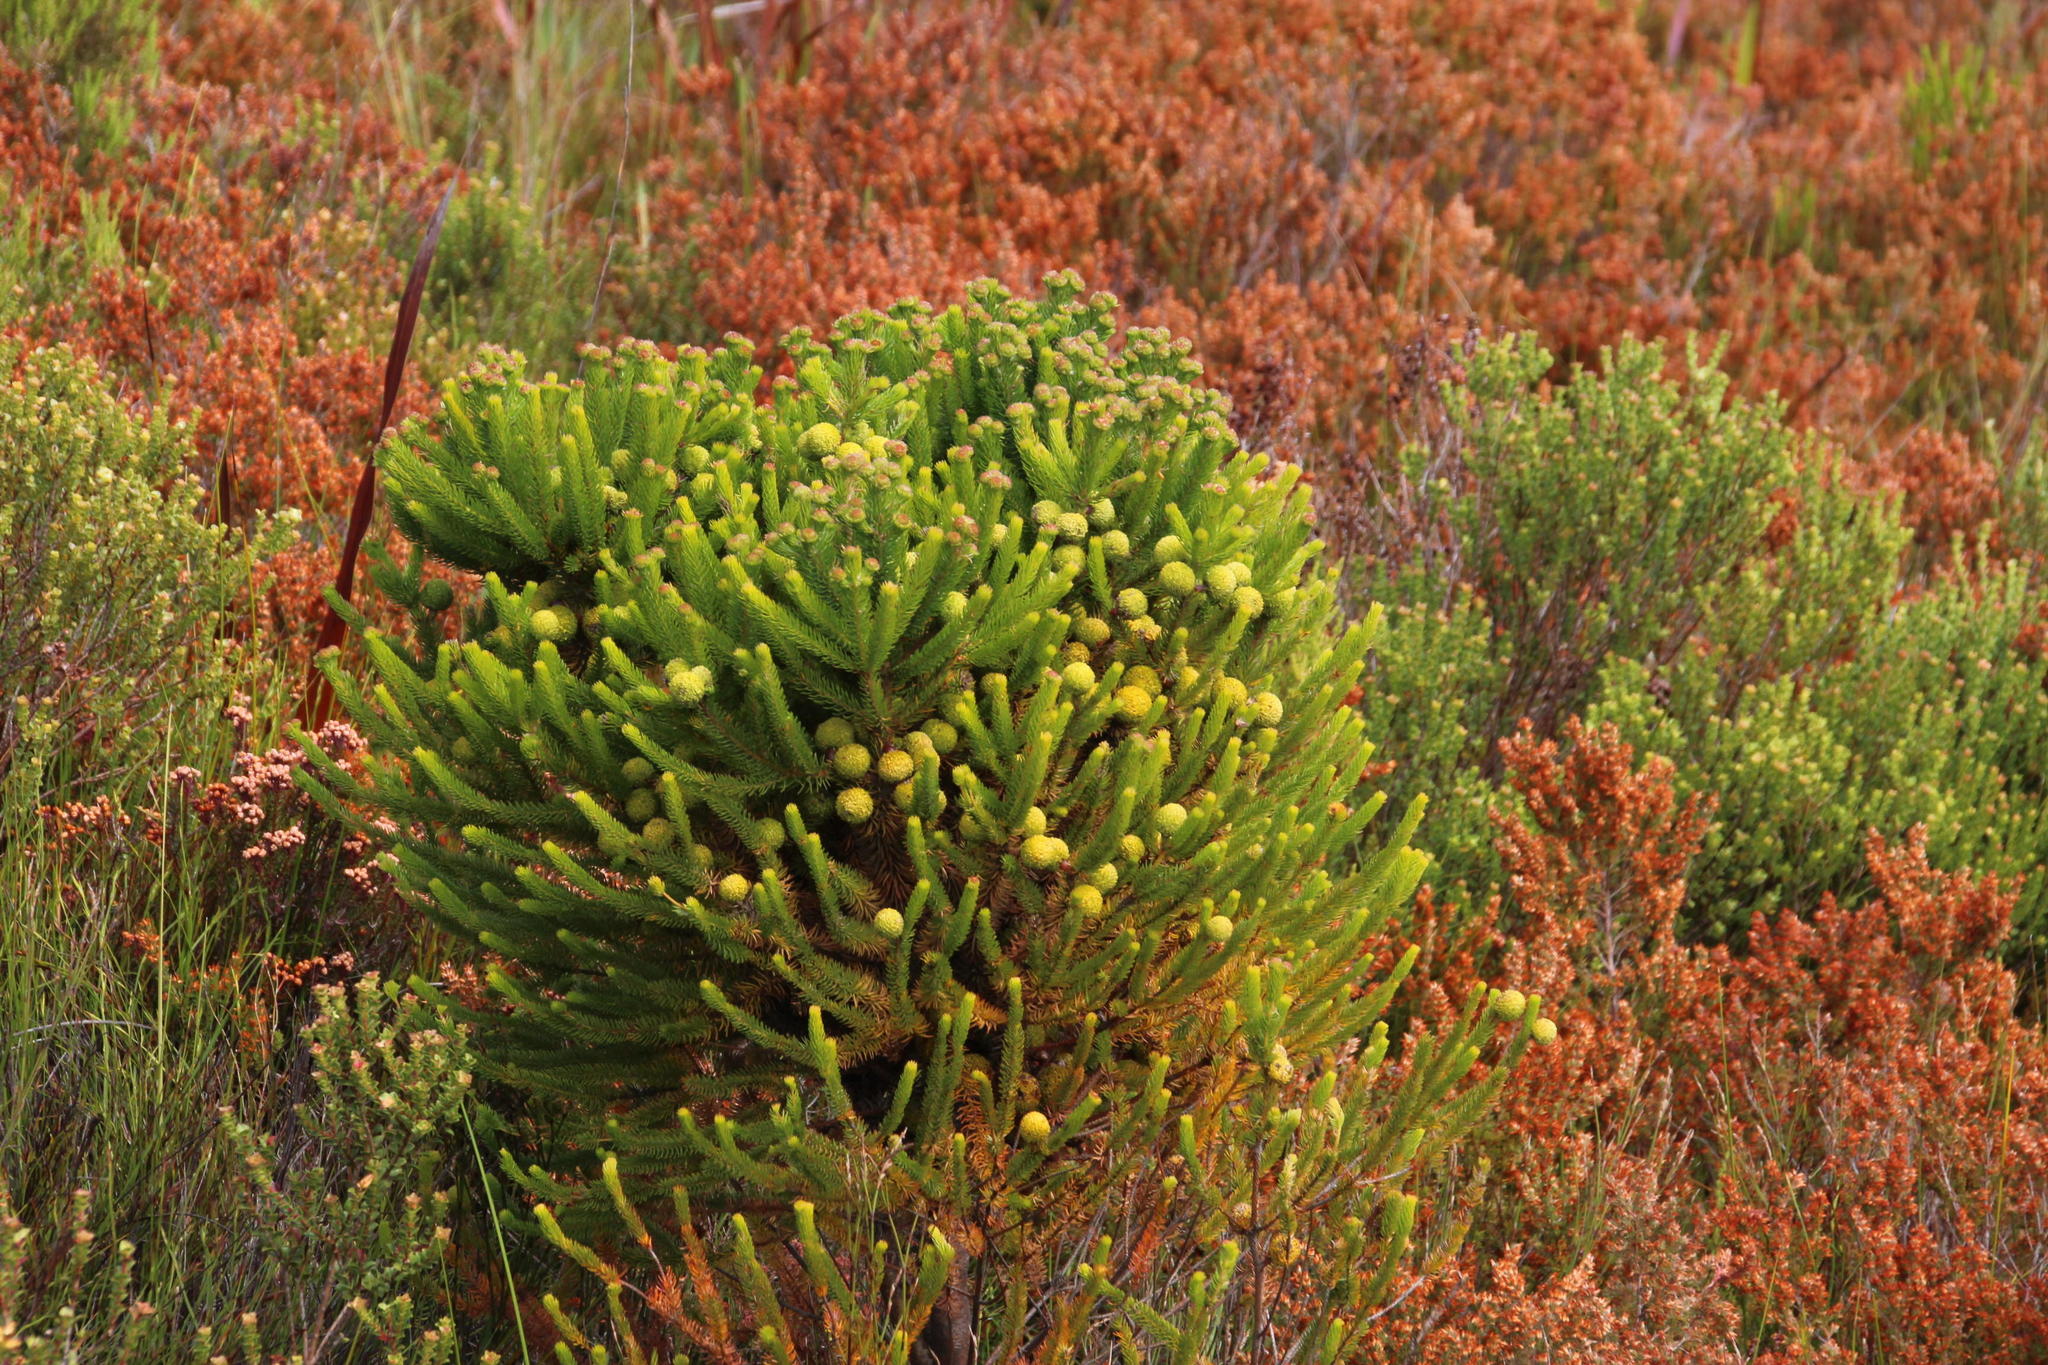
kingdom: Plantae
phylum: Tracheophyta
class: Magnoliopsida
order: Bruniales
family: Bruniaceae
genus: Berzelia
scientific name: Berzelia galpinii
